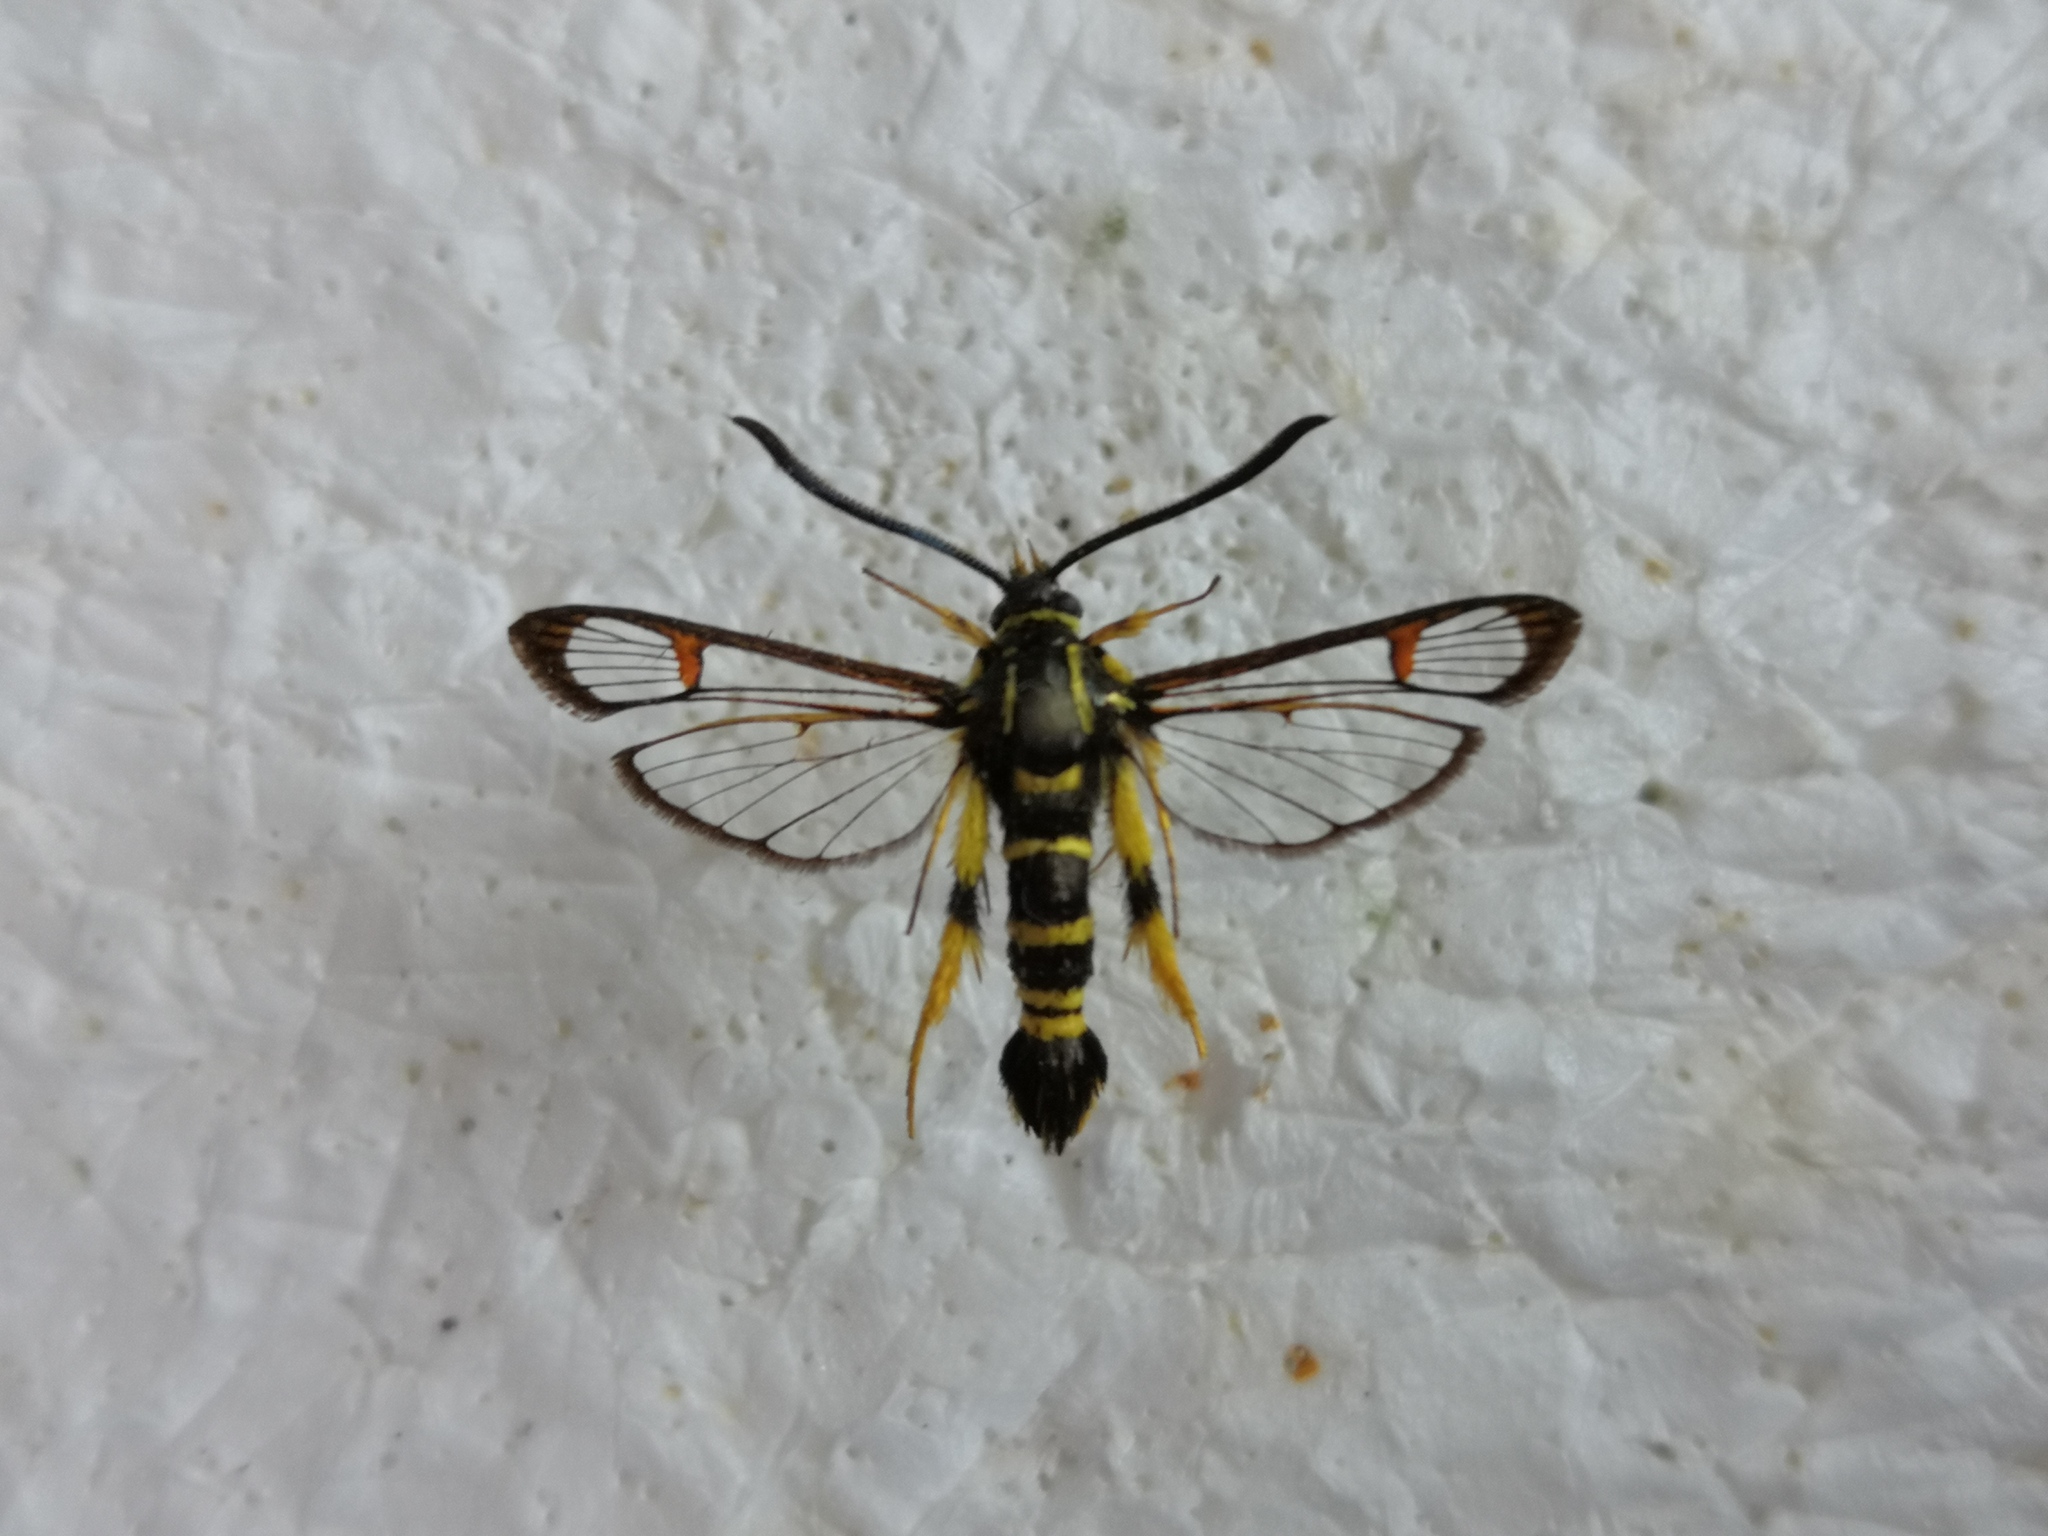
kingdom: Animalia
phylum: Arthropoda
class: Insecta
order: Lepidoptera
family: Sesiidae
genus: Synanthedon
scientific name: Synanthedon vespiformis
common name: Yellow-legged clearwing
